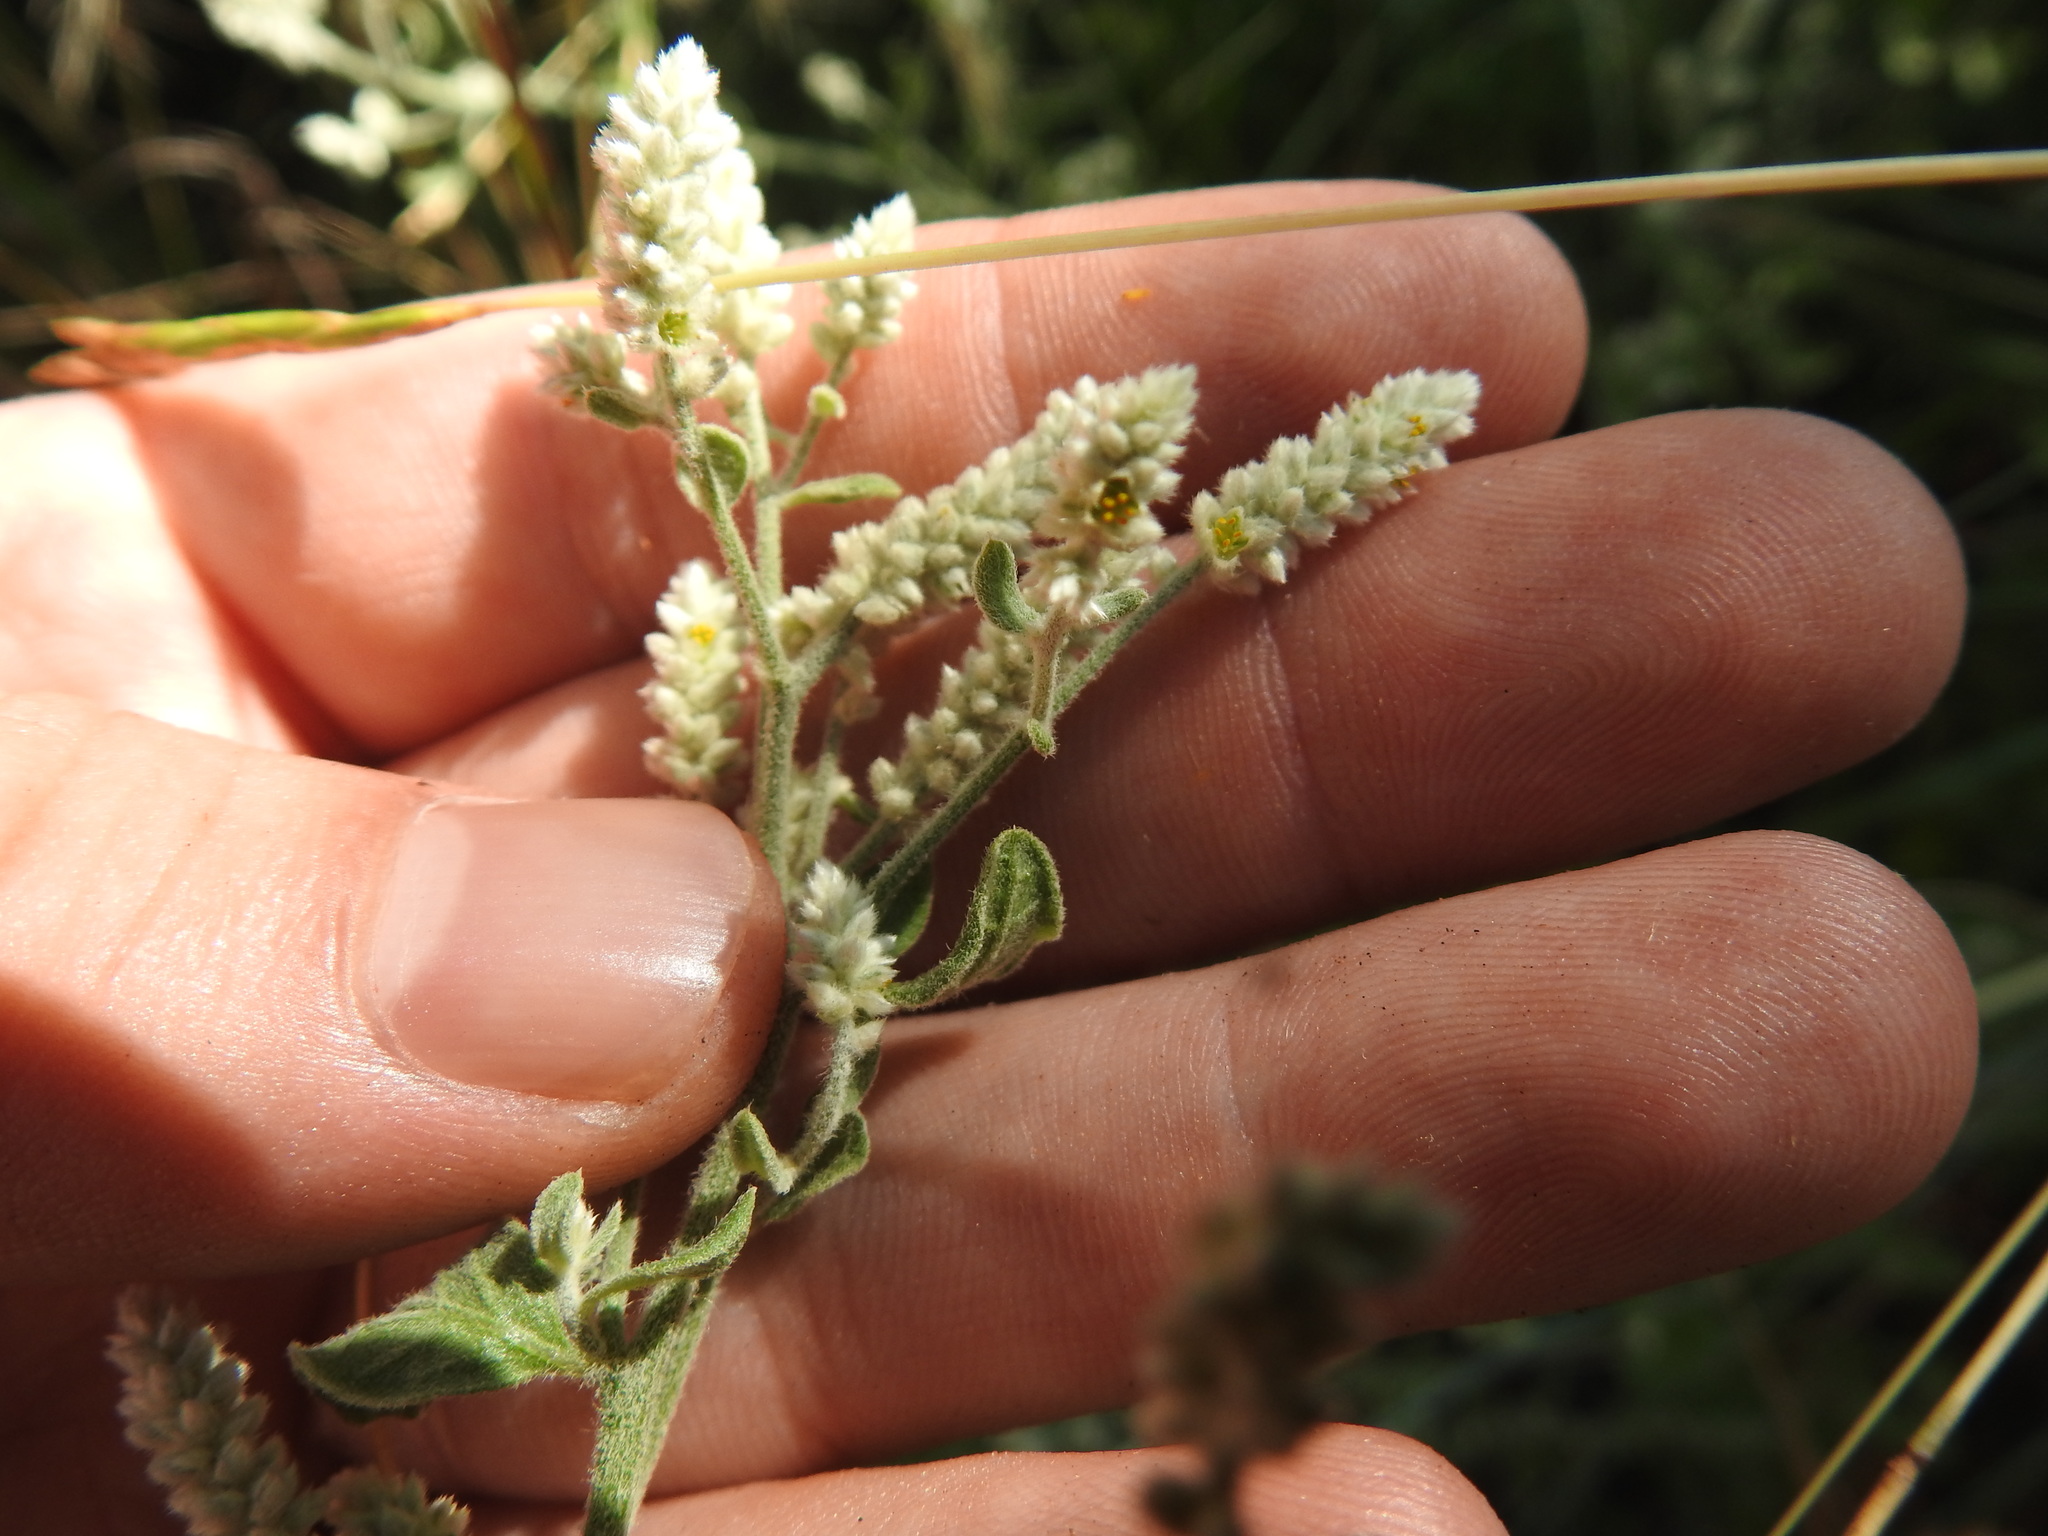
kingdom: Plantae
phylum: Tracheophyta
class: Magnoliopsida
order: Caryophyllales
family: Amaranthaceae
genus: Ouret
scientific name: Ouret leucura
